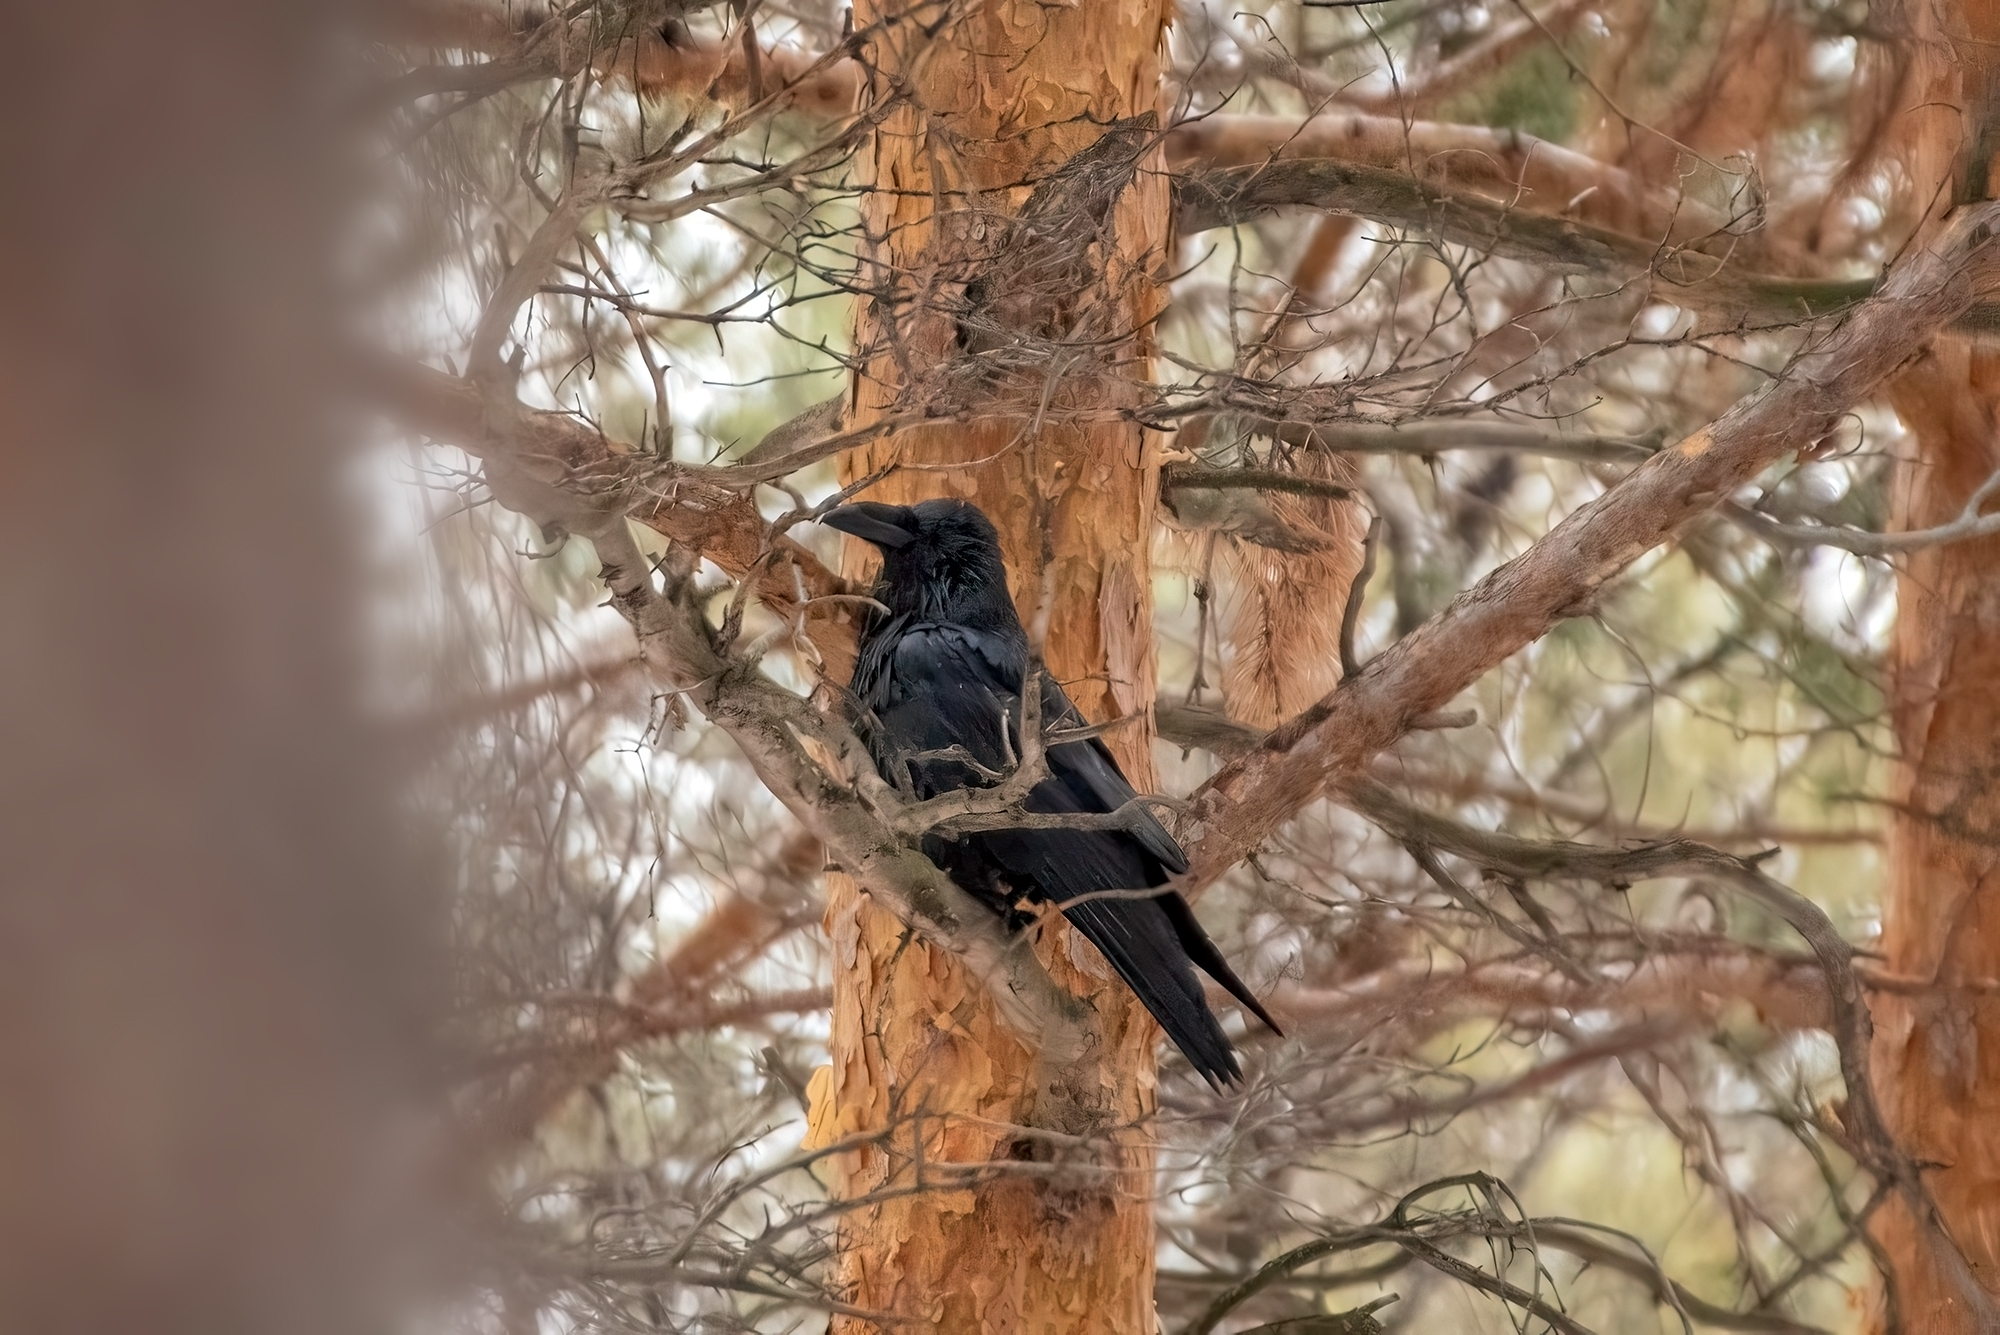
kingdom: Animalia
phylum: Chordata
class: Aves
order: Passeriformes
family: Corvidae
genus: Corvus
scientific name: Corvus corax
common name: Common raven
